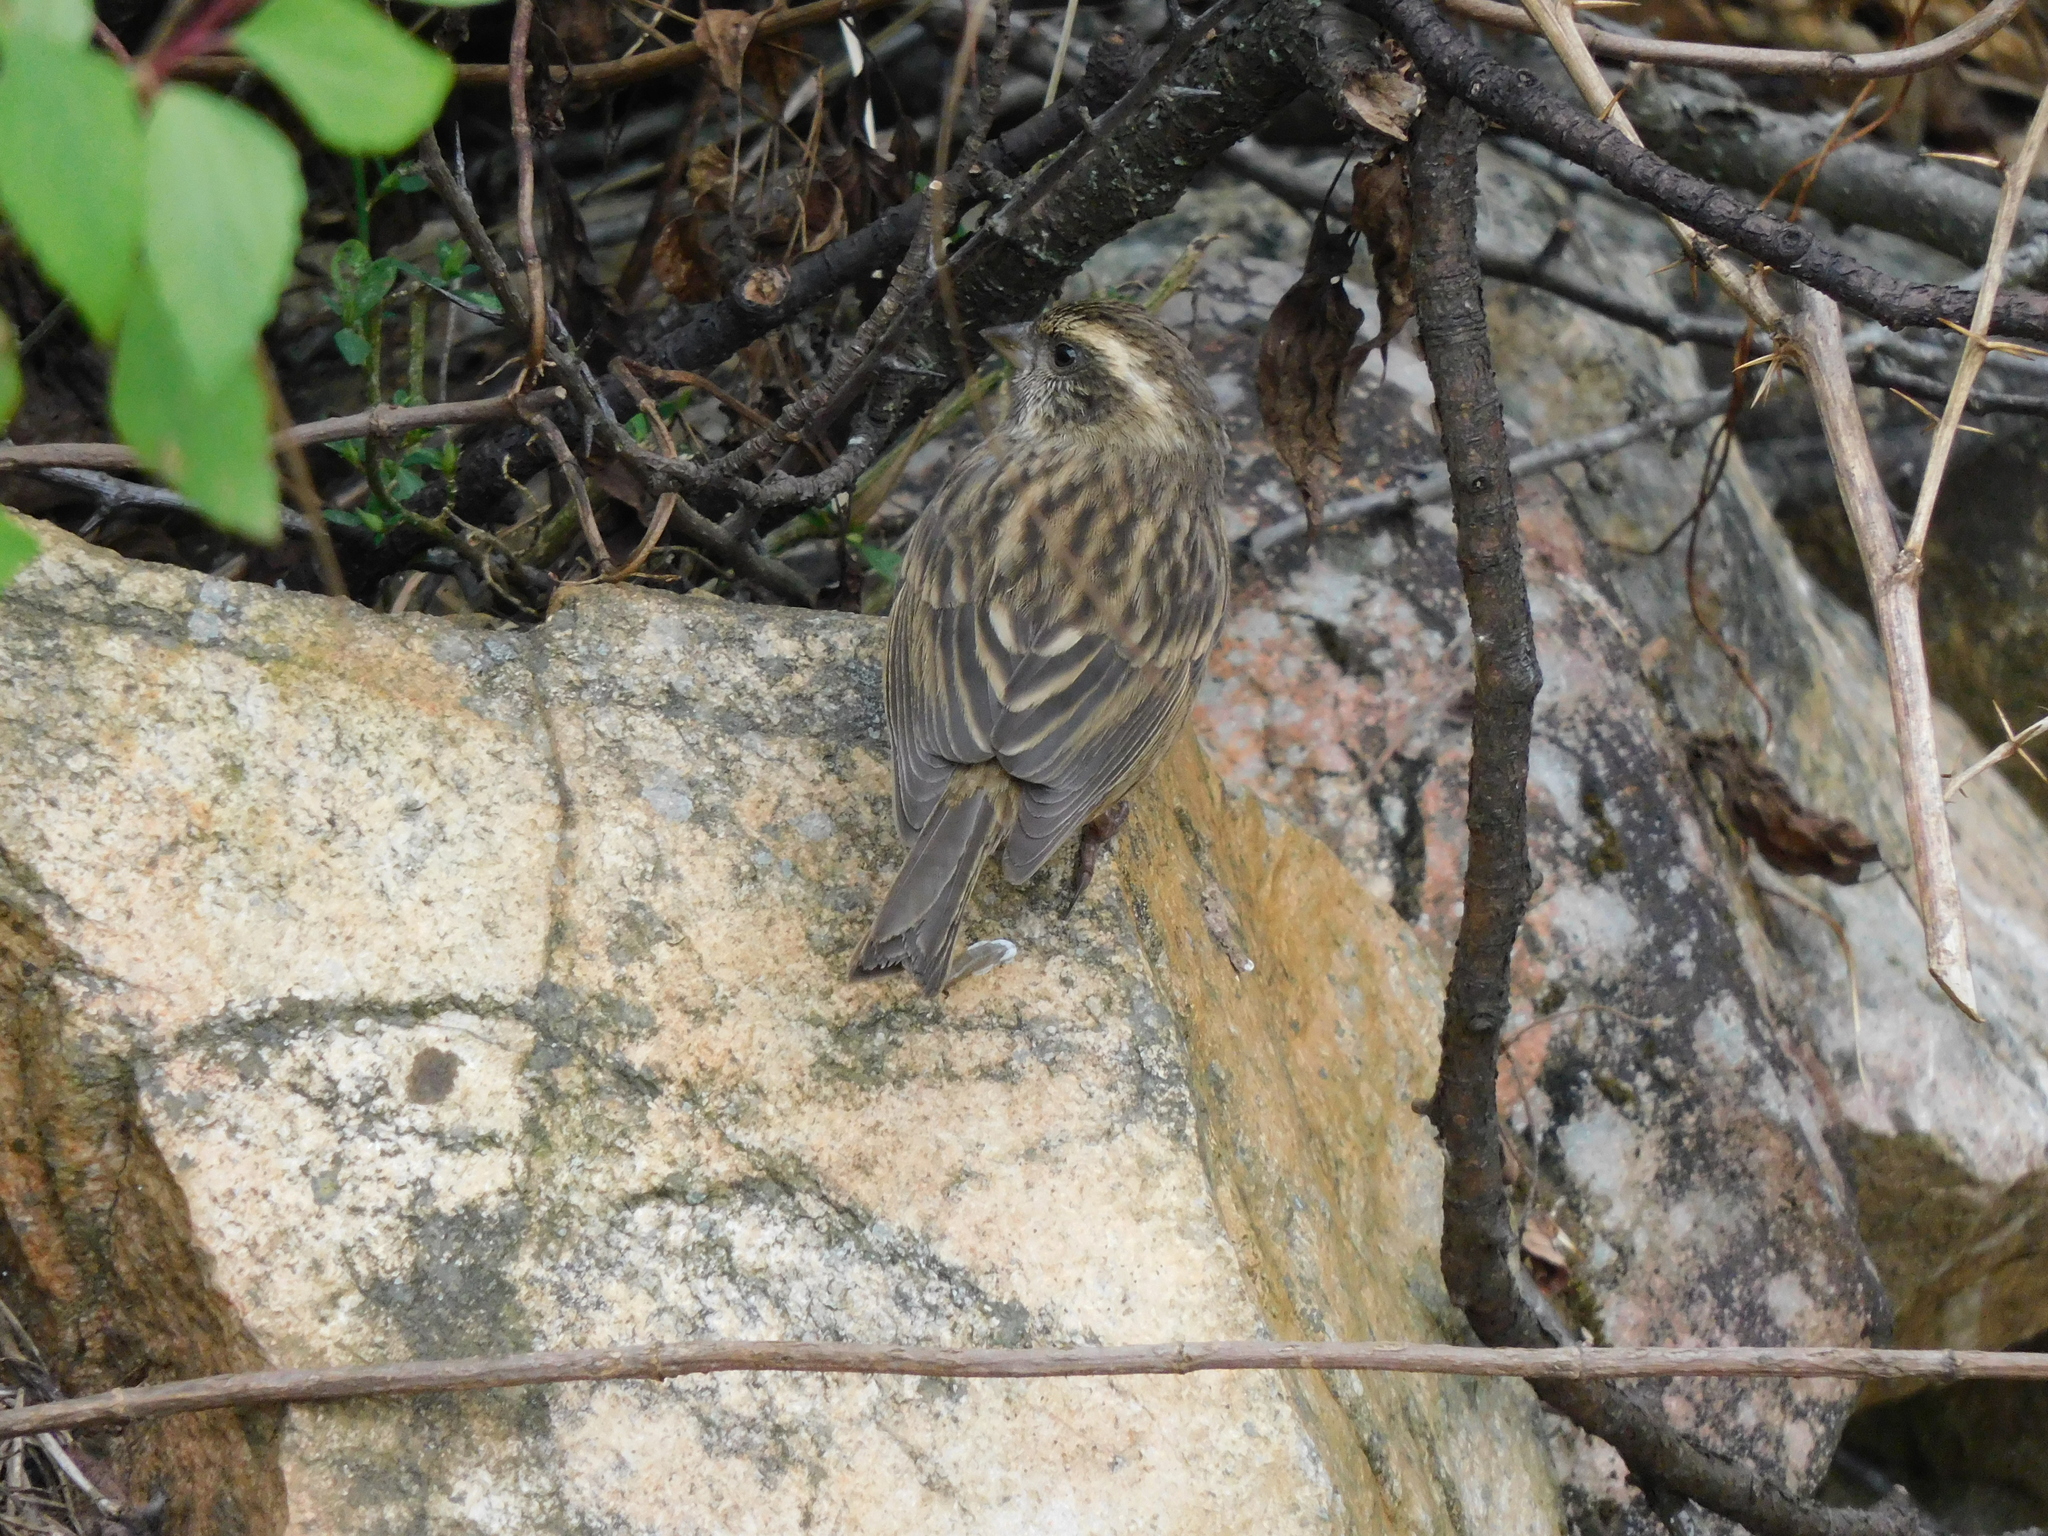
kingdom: Animalia
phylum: Chordata
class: Aves
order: Passeriformes
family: Fringillidae
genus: Carpodacus
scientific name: Carpodacus rodochroa
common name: Pink-browed rosefinch
